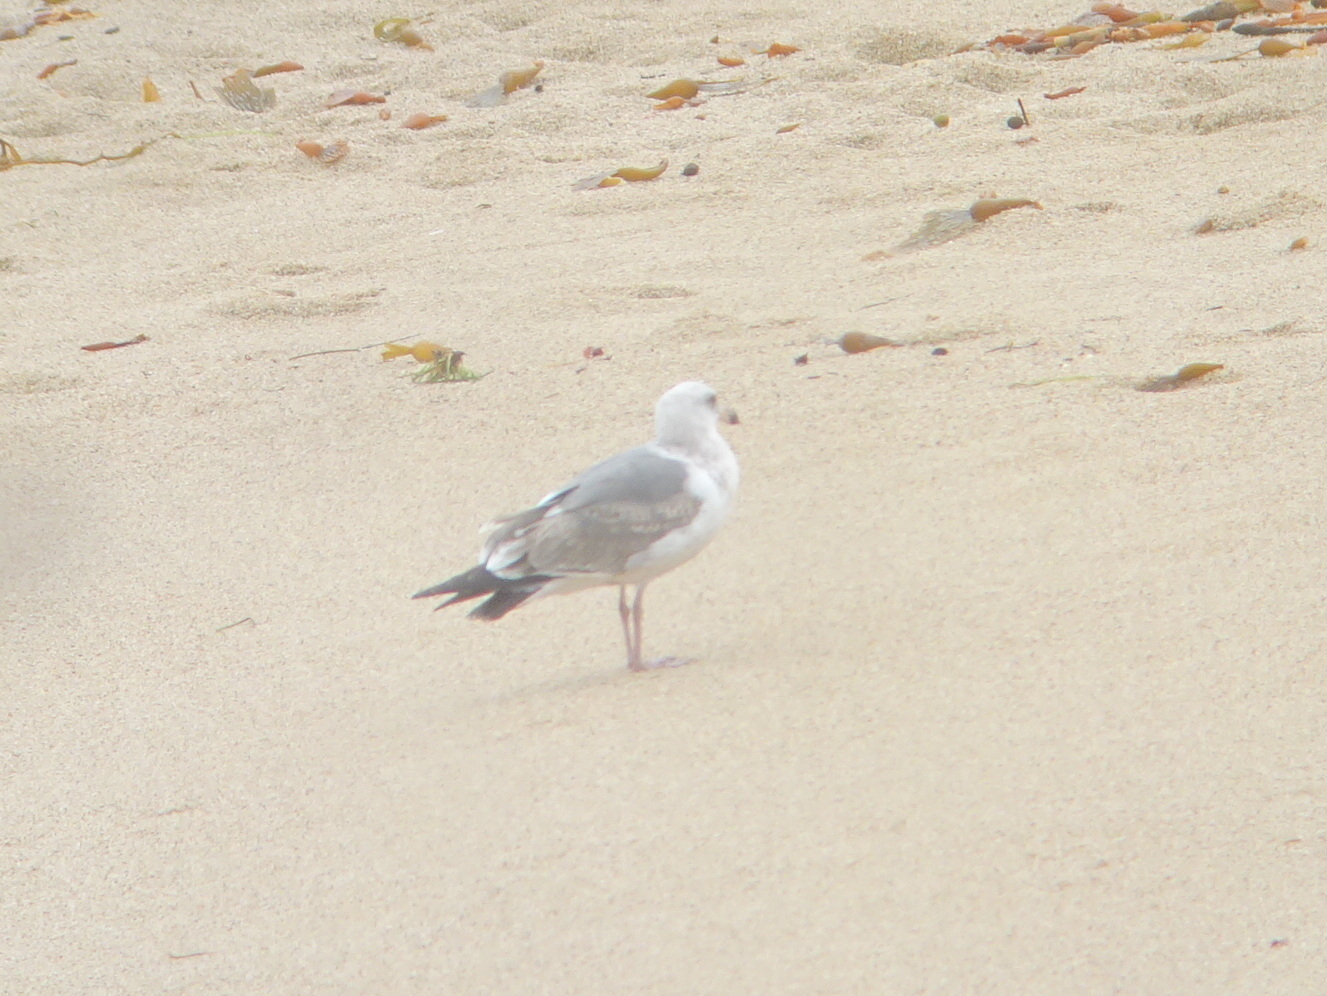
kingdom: Animalia
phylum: Chordata
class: Aves
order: Charadriiformes
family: Laridae
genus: Larus
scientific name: Larus occidentalis
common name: Western gull
